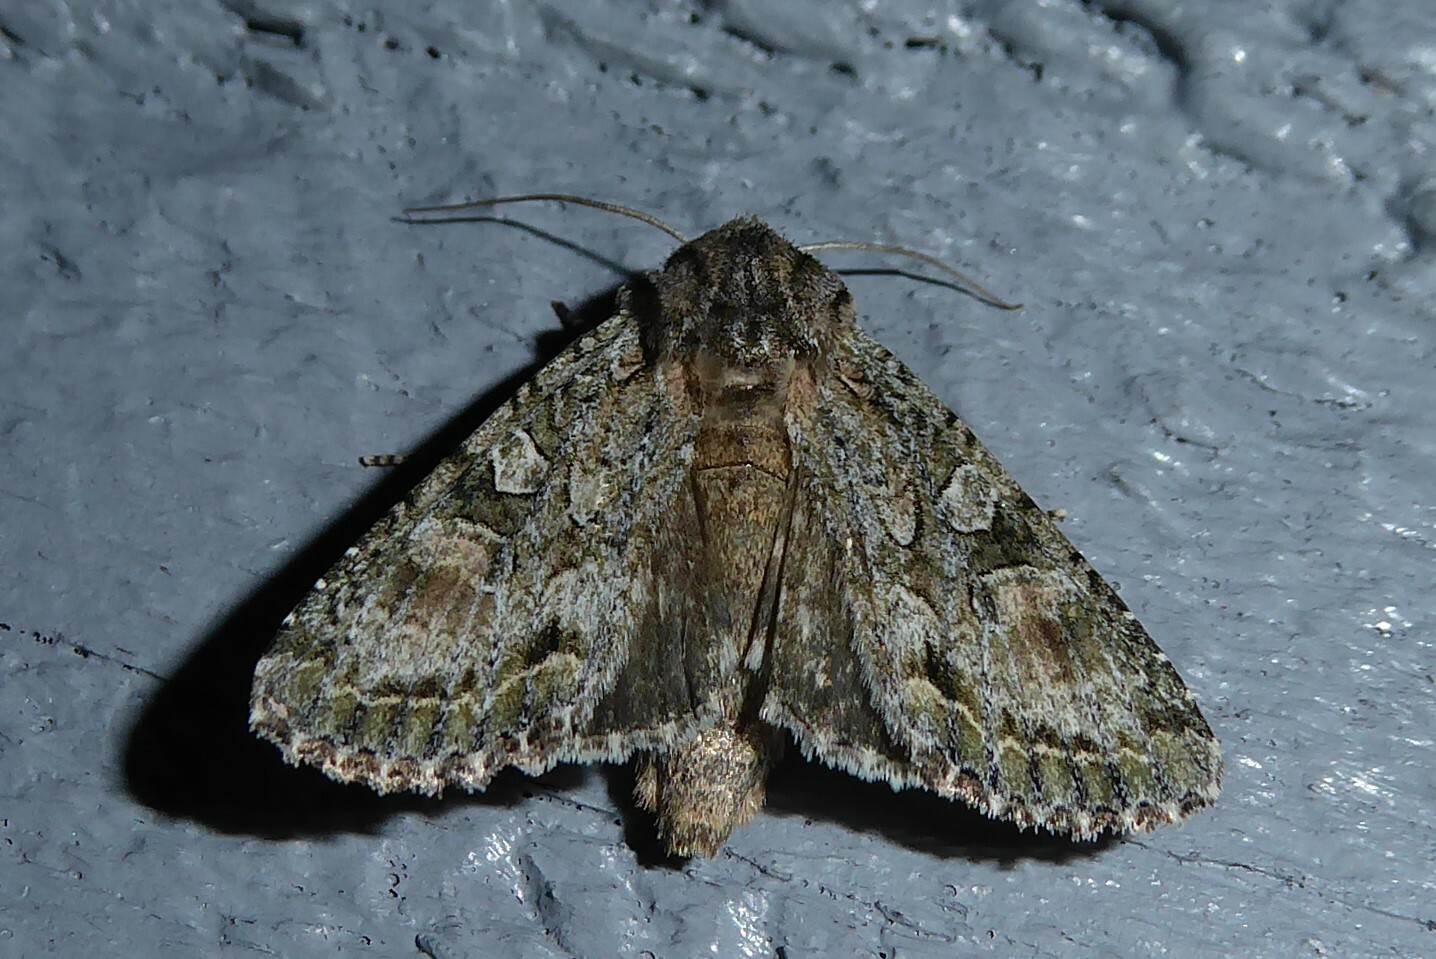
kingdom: Animalia
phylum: Arthropoda
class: Insecta
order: Lepidoptera
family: Noctuidae
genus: Ichneutica
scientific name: Ichneutica mutans
